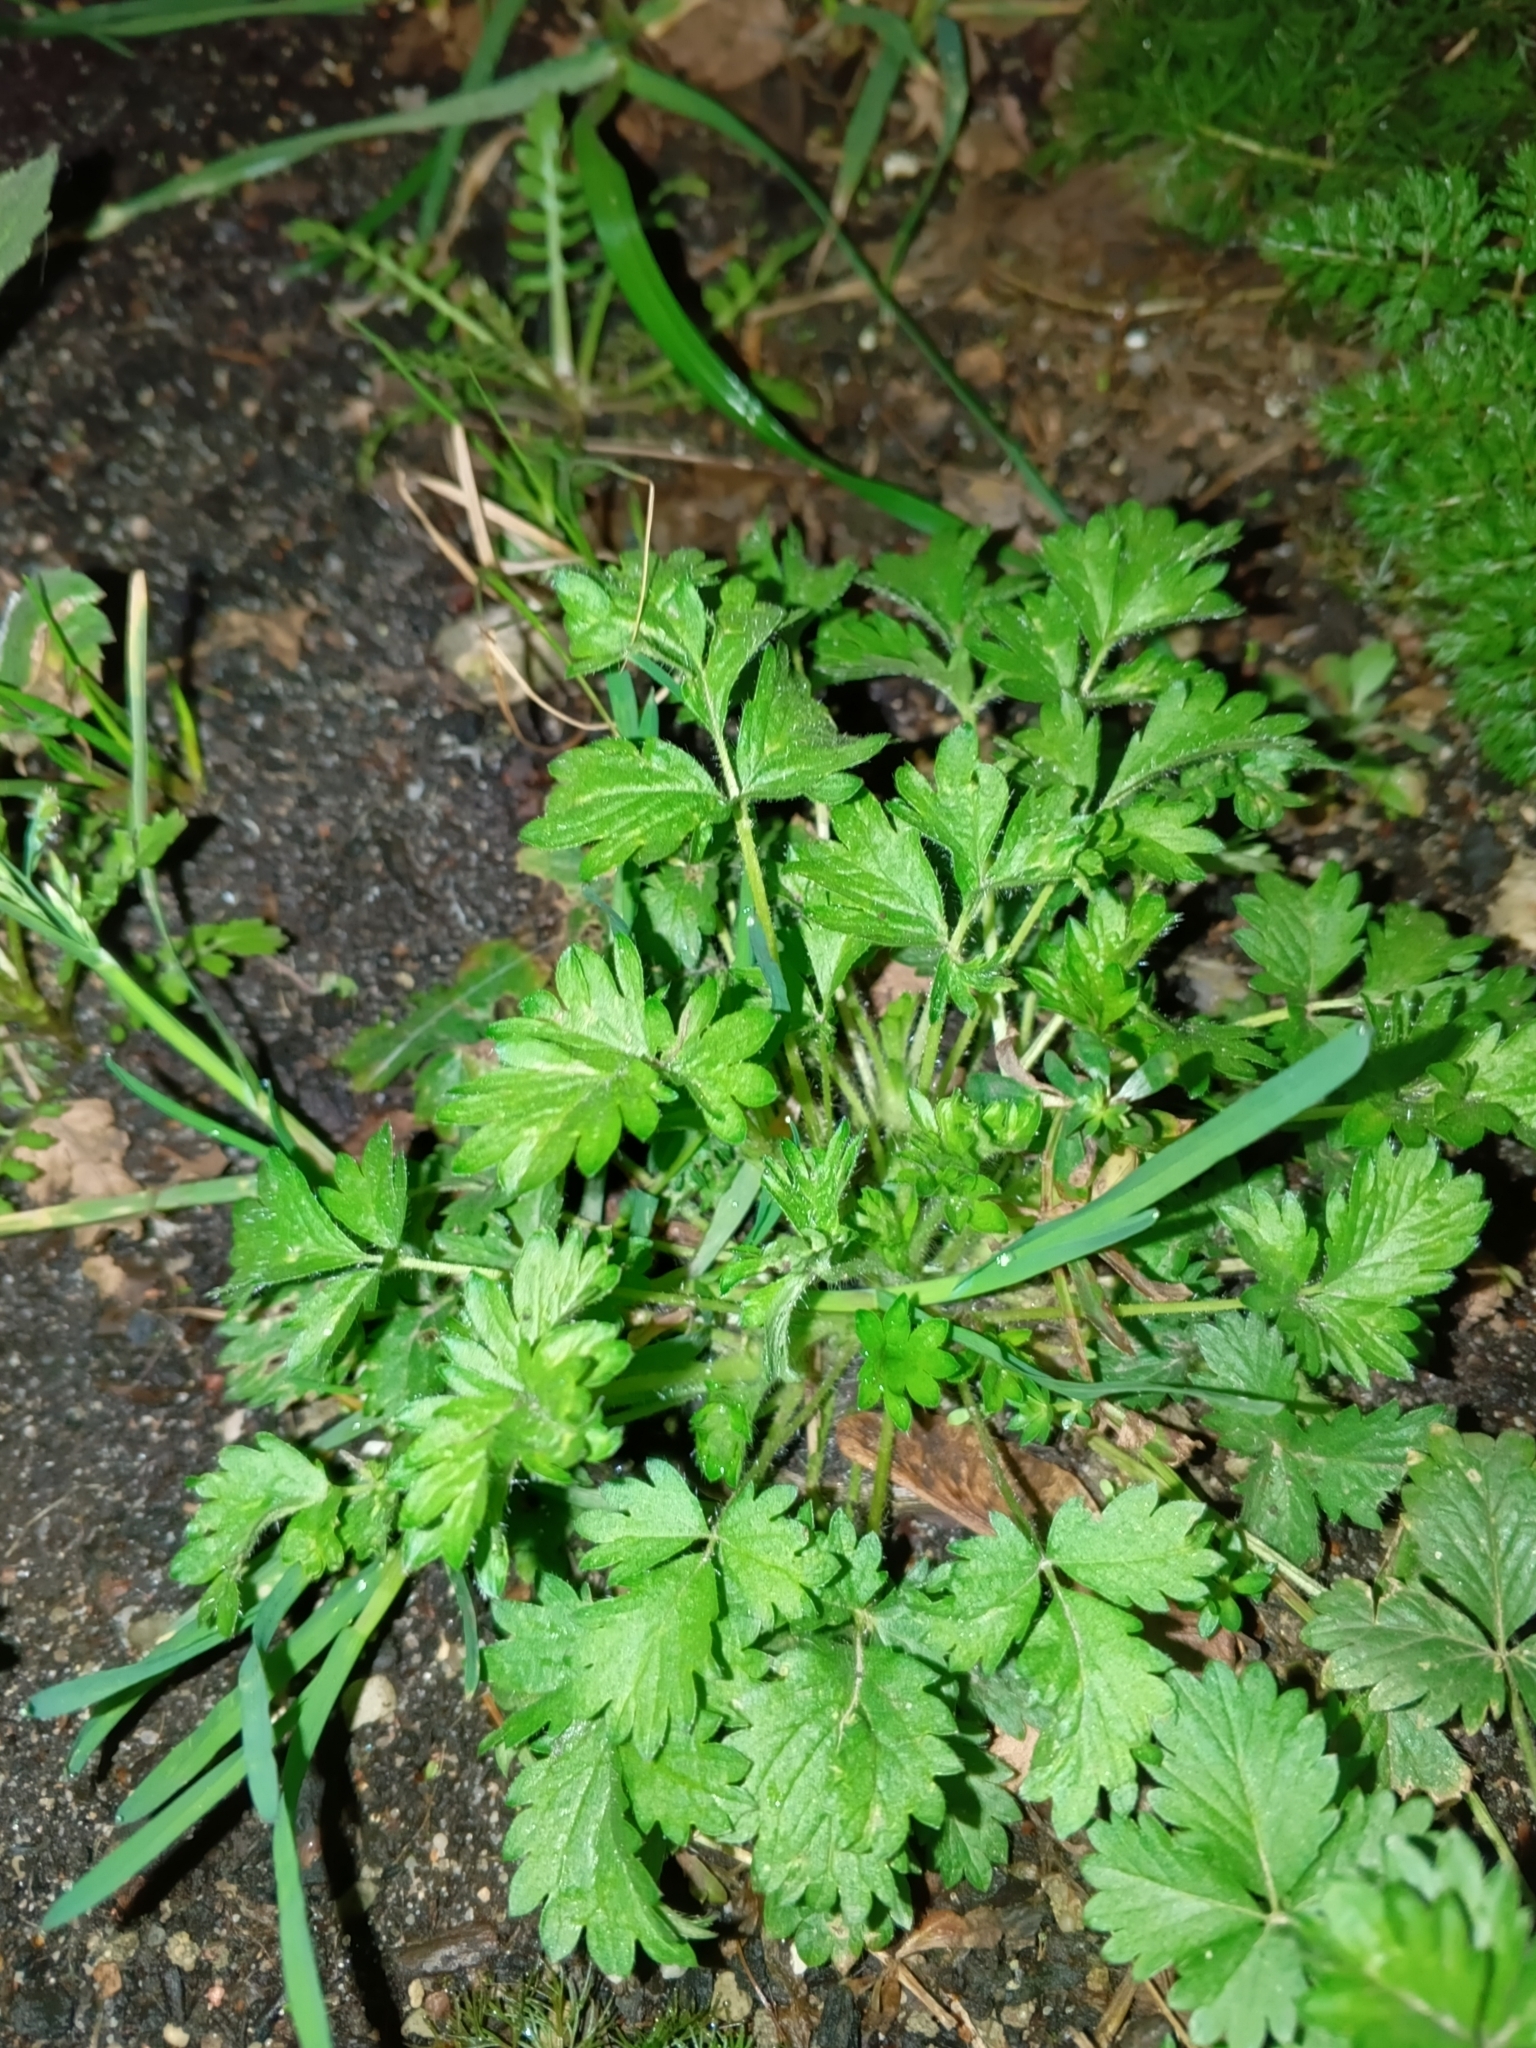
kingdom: Plantae
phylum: Tracheophyta
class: Magnoliopsida
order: Rosales
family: Rosaceae
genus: Potentilla
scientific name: Potentilla intermedia
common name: Downy cinquefoil
